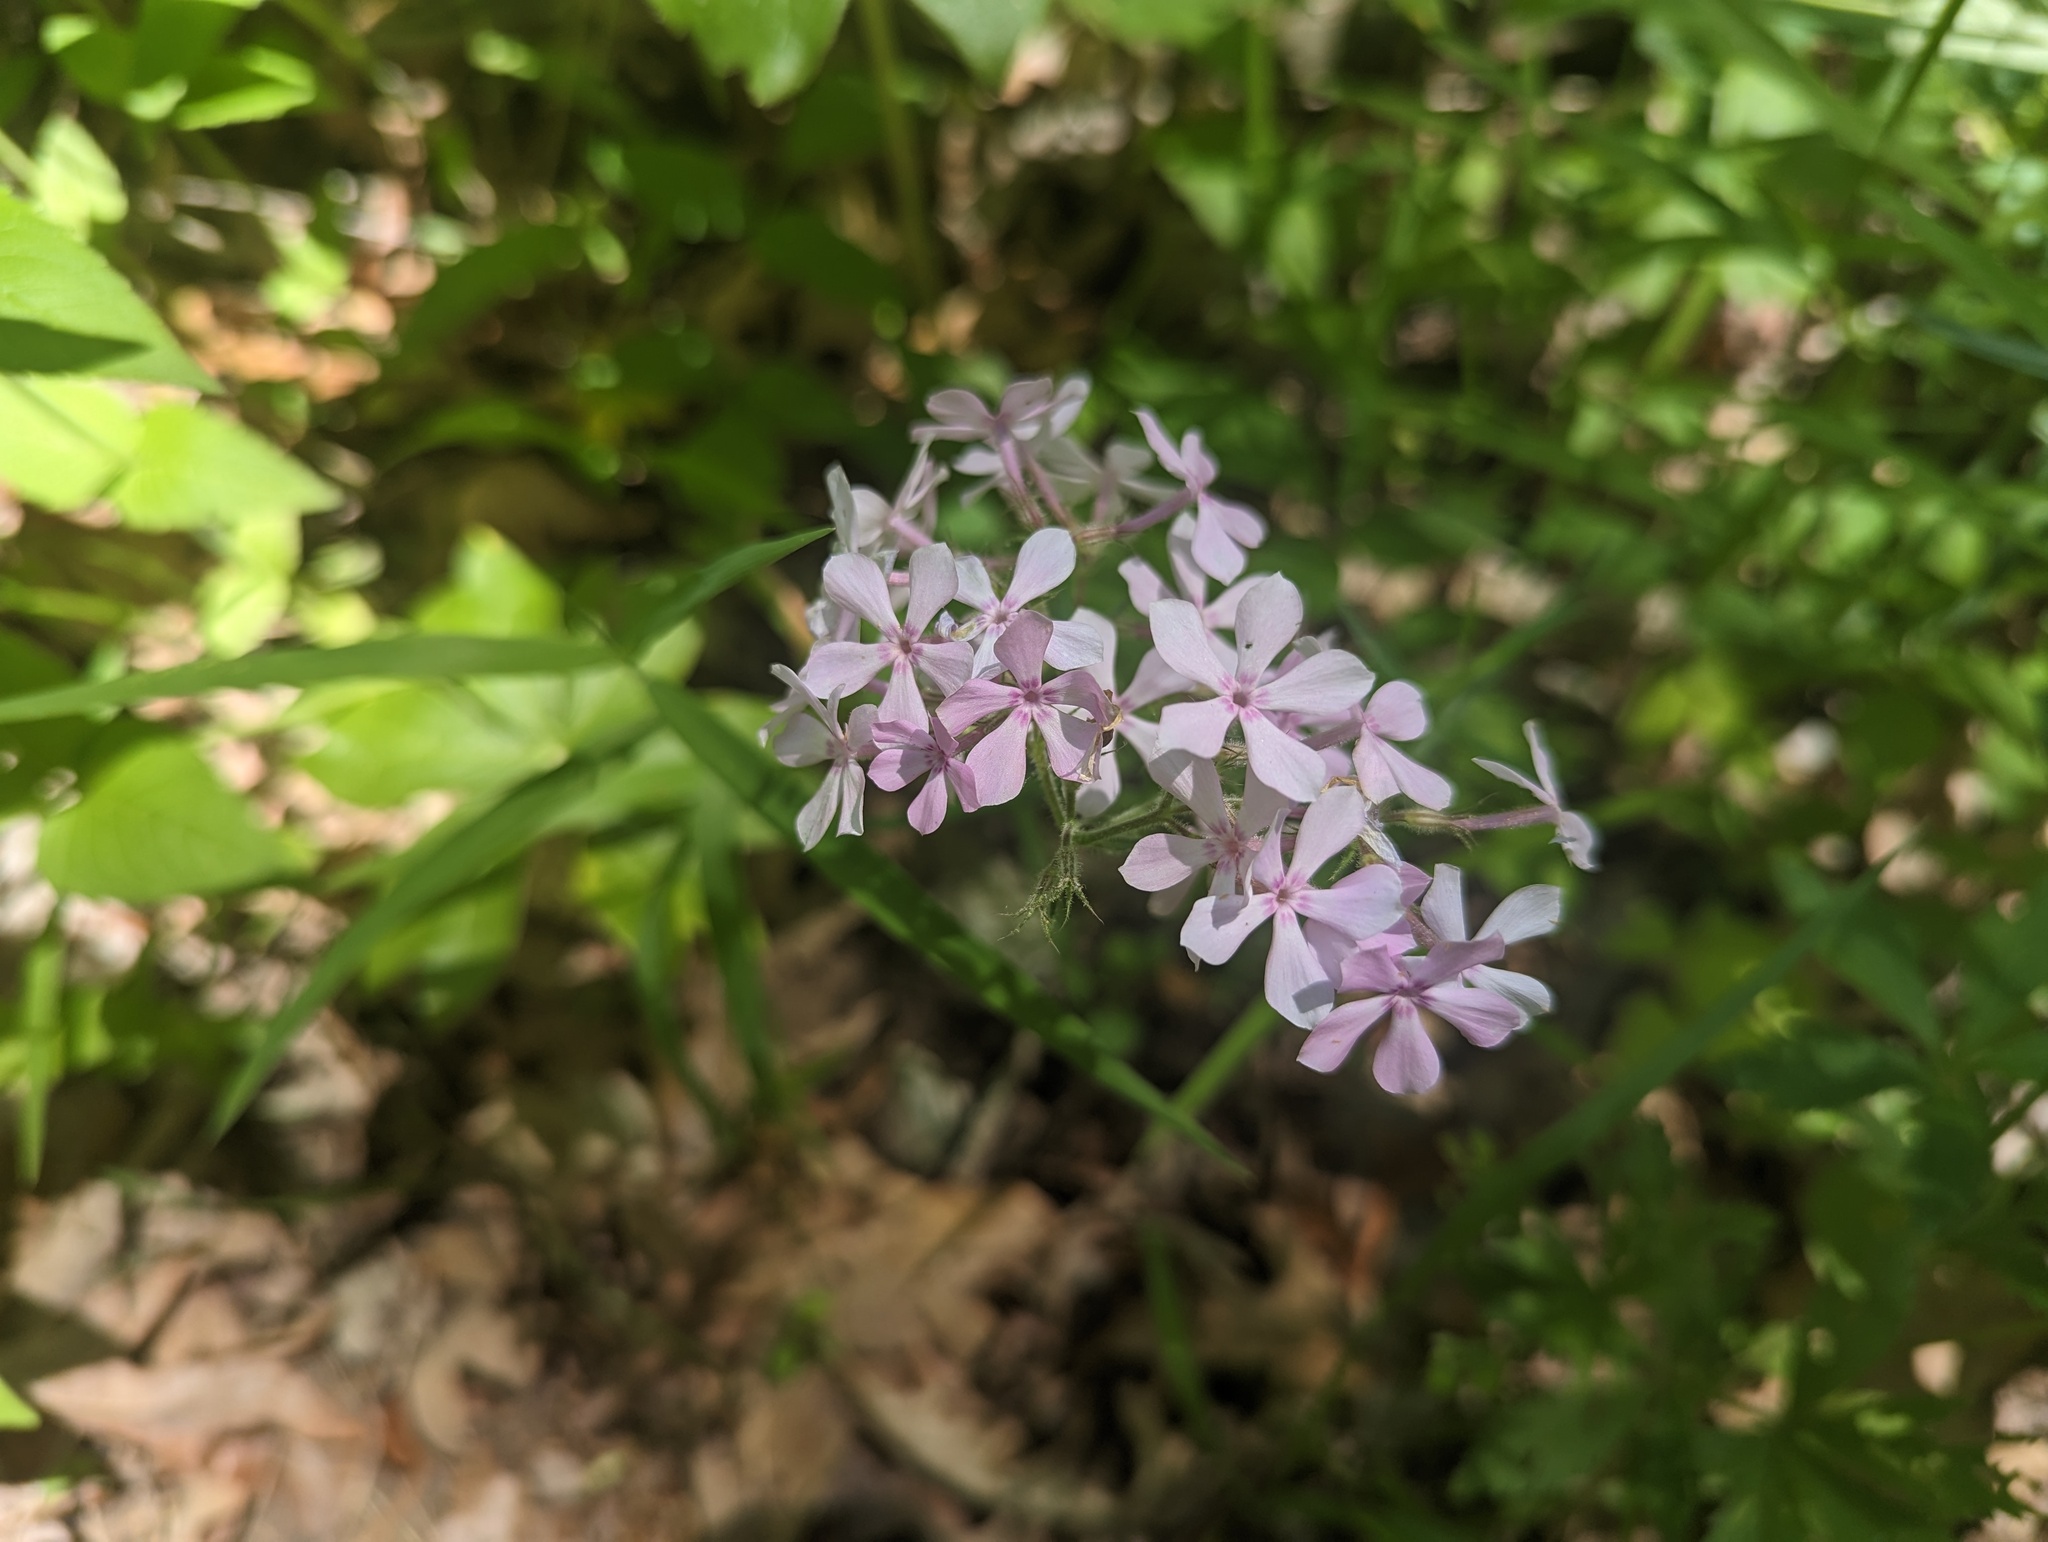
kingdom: Plantae
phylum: Tracheophyta
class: Magnoliopsida
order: Ericales
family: Polemoniaceae
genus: Phlox
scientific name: Phlox pilosa
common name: Prairie phlox
